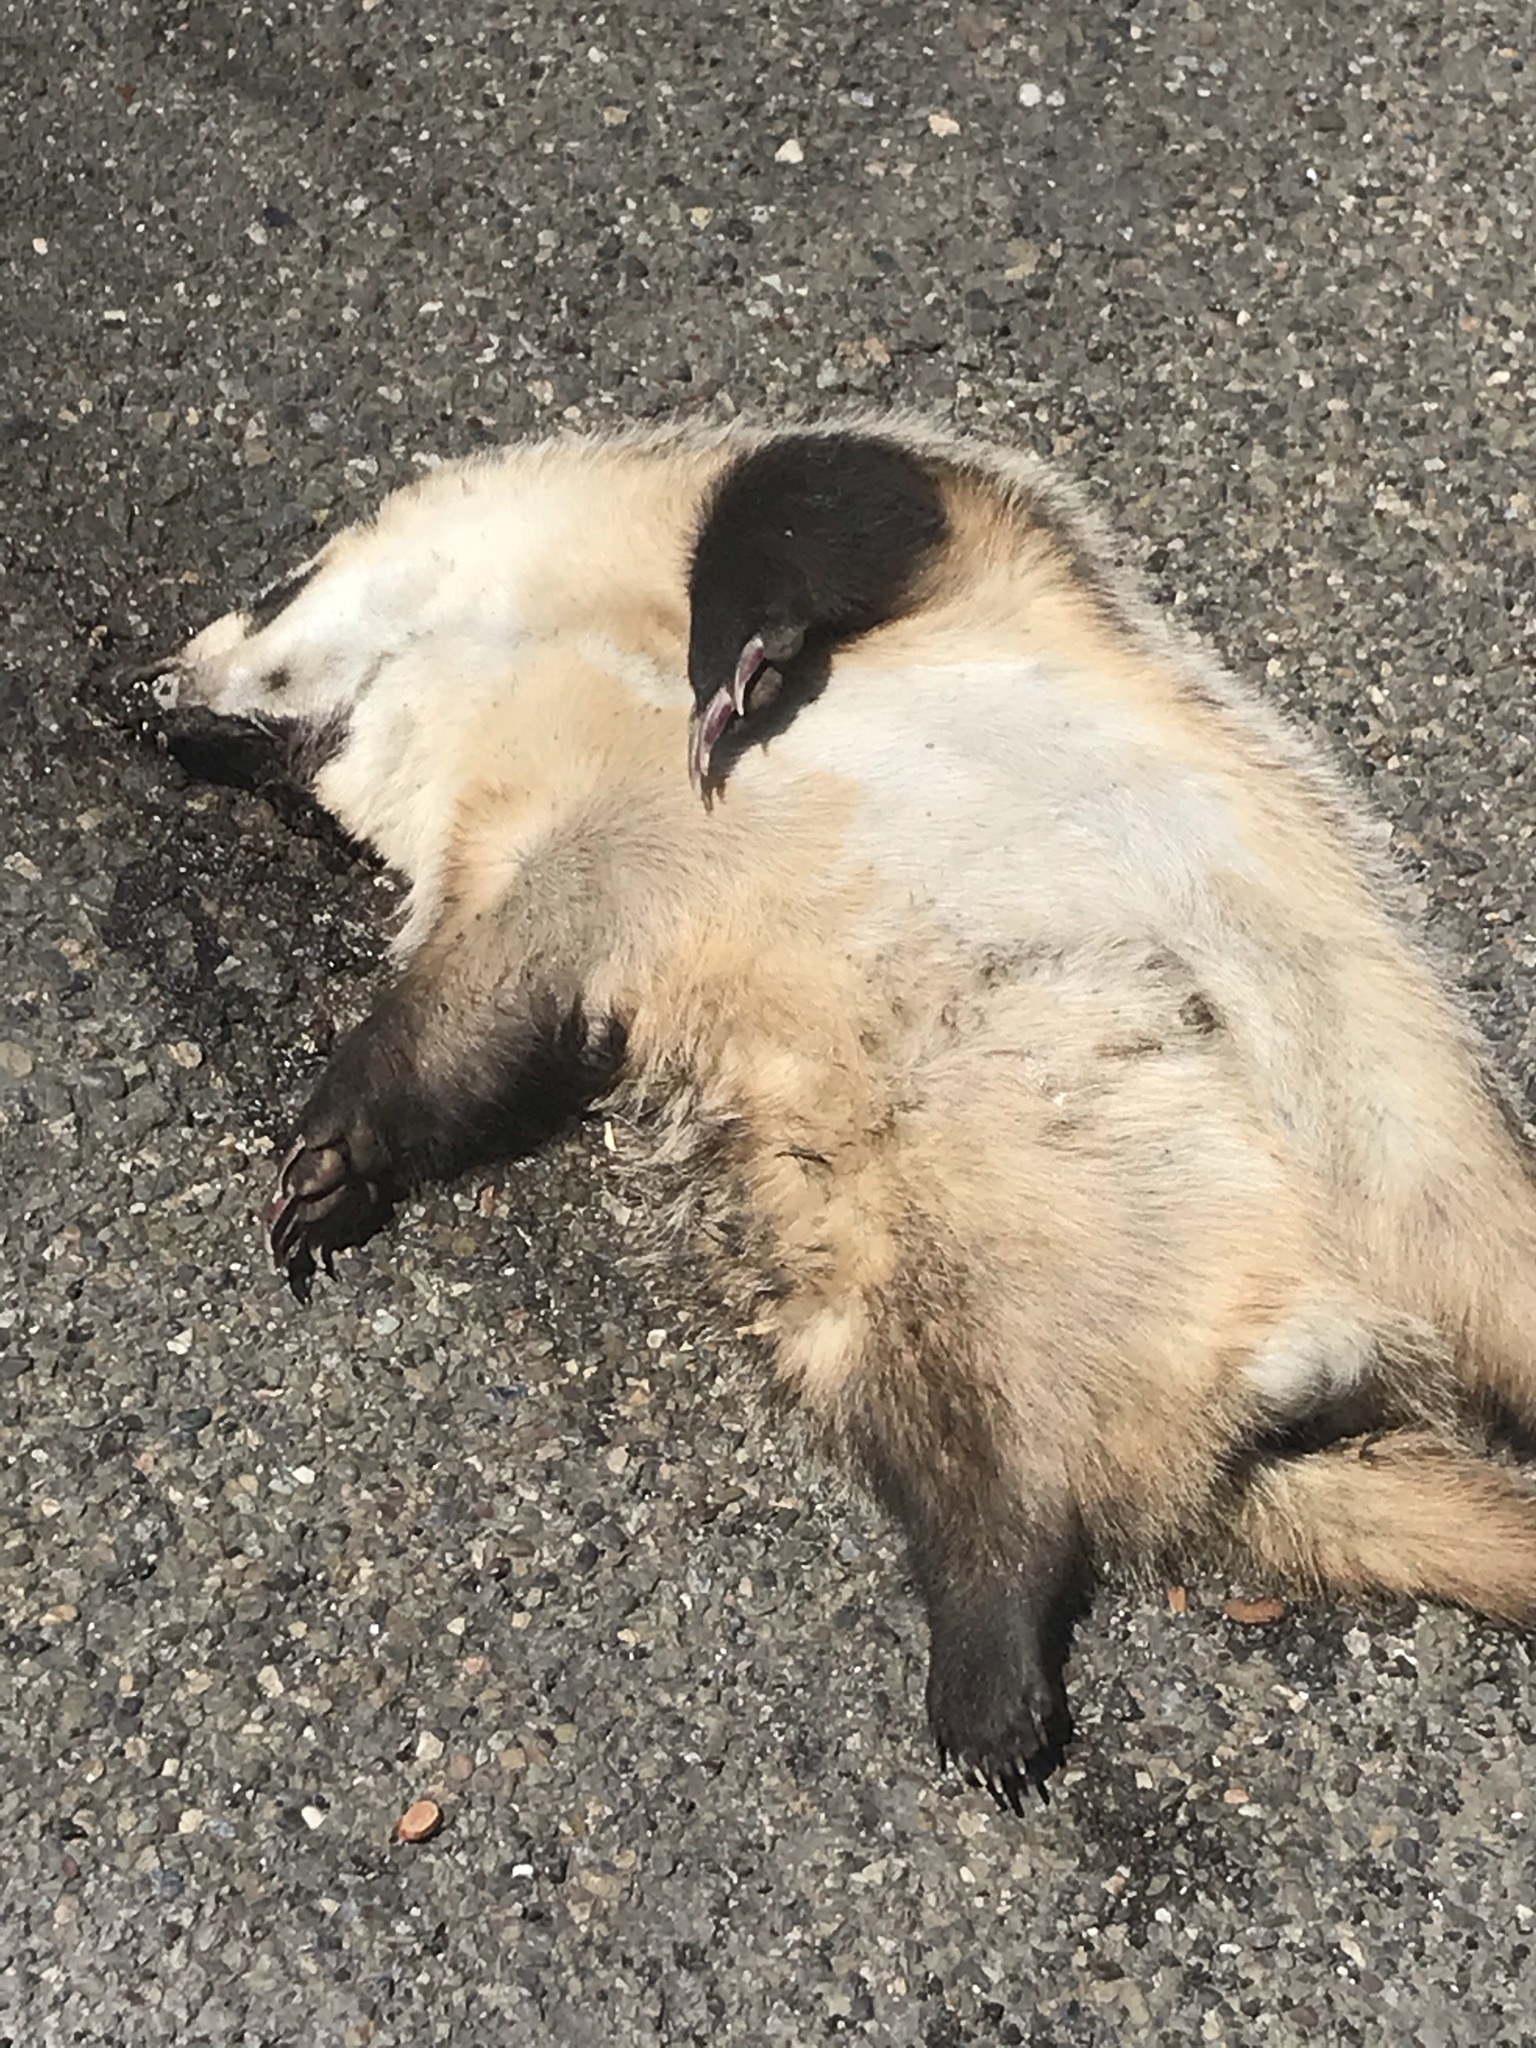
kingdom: Animalia
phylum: Chordata
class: Mammalia
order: Carnivora
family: Mustelidae
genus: Taxidea
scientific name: Taxidea taxus
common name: American badger
